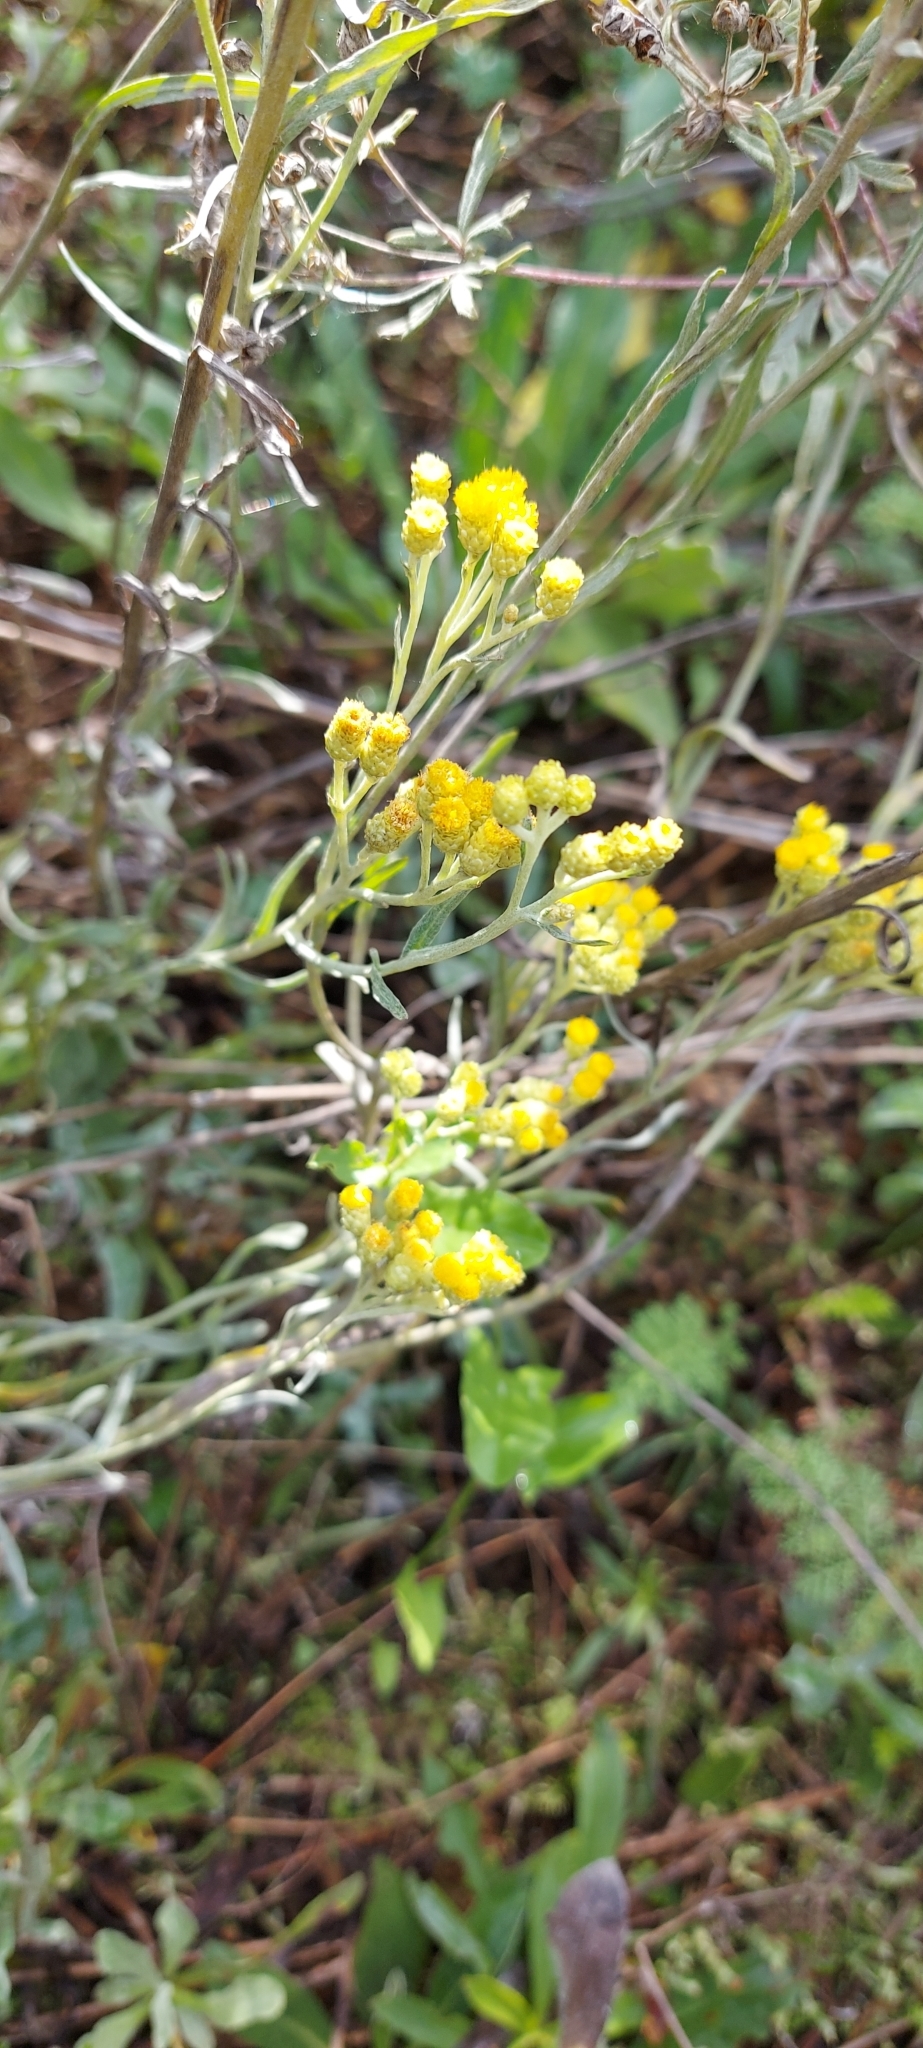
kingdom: Plantae
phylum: Tracheophyta
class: Magnoliopsida
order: Asterales
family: Asteraceae
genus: Helichrysum
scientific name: Helichrysum arenarium
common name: Strawflower
